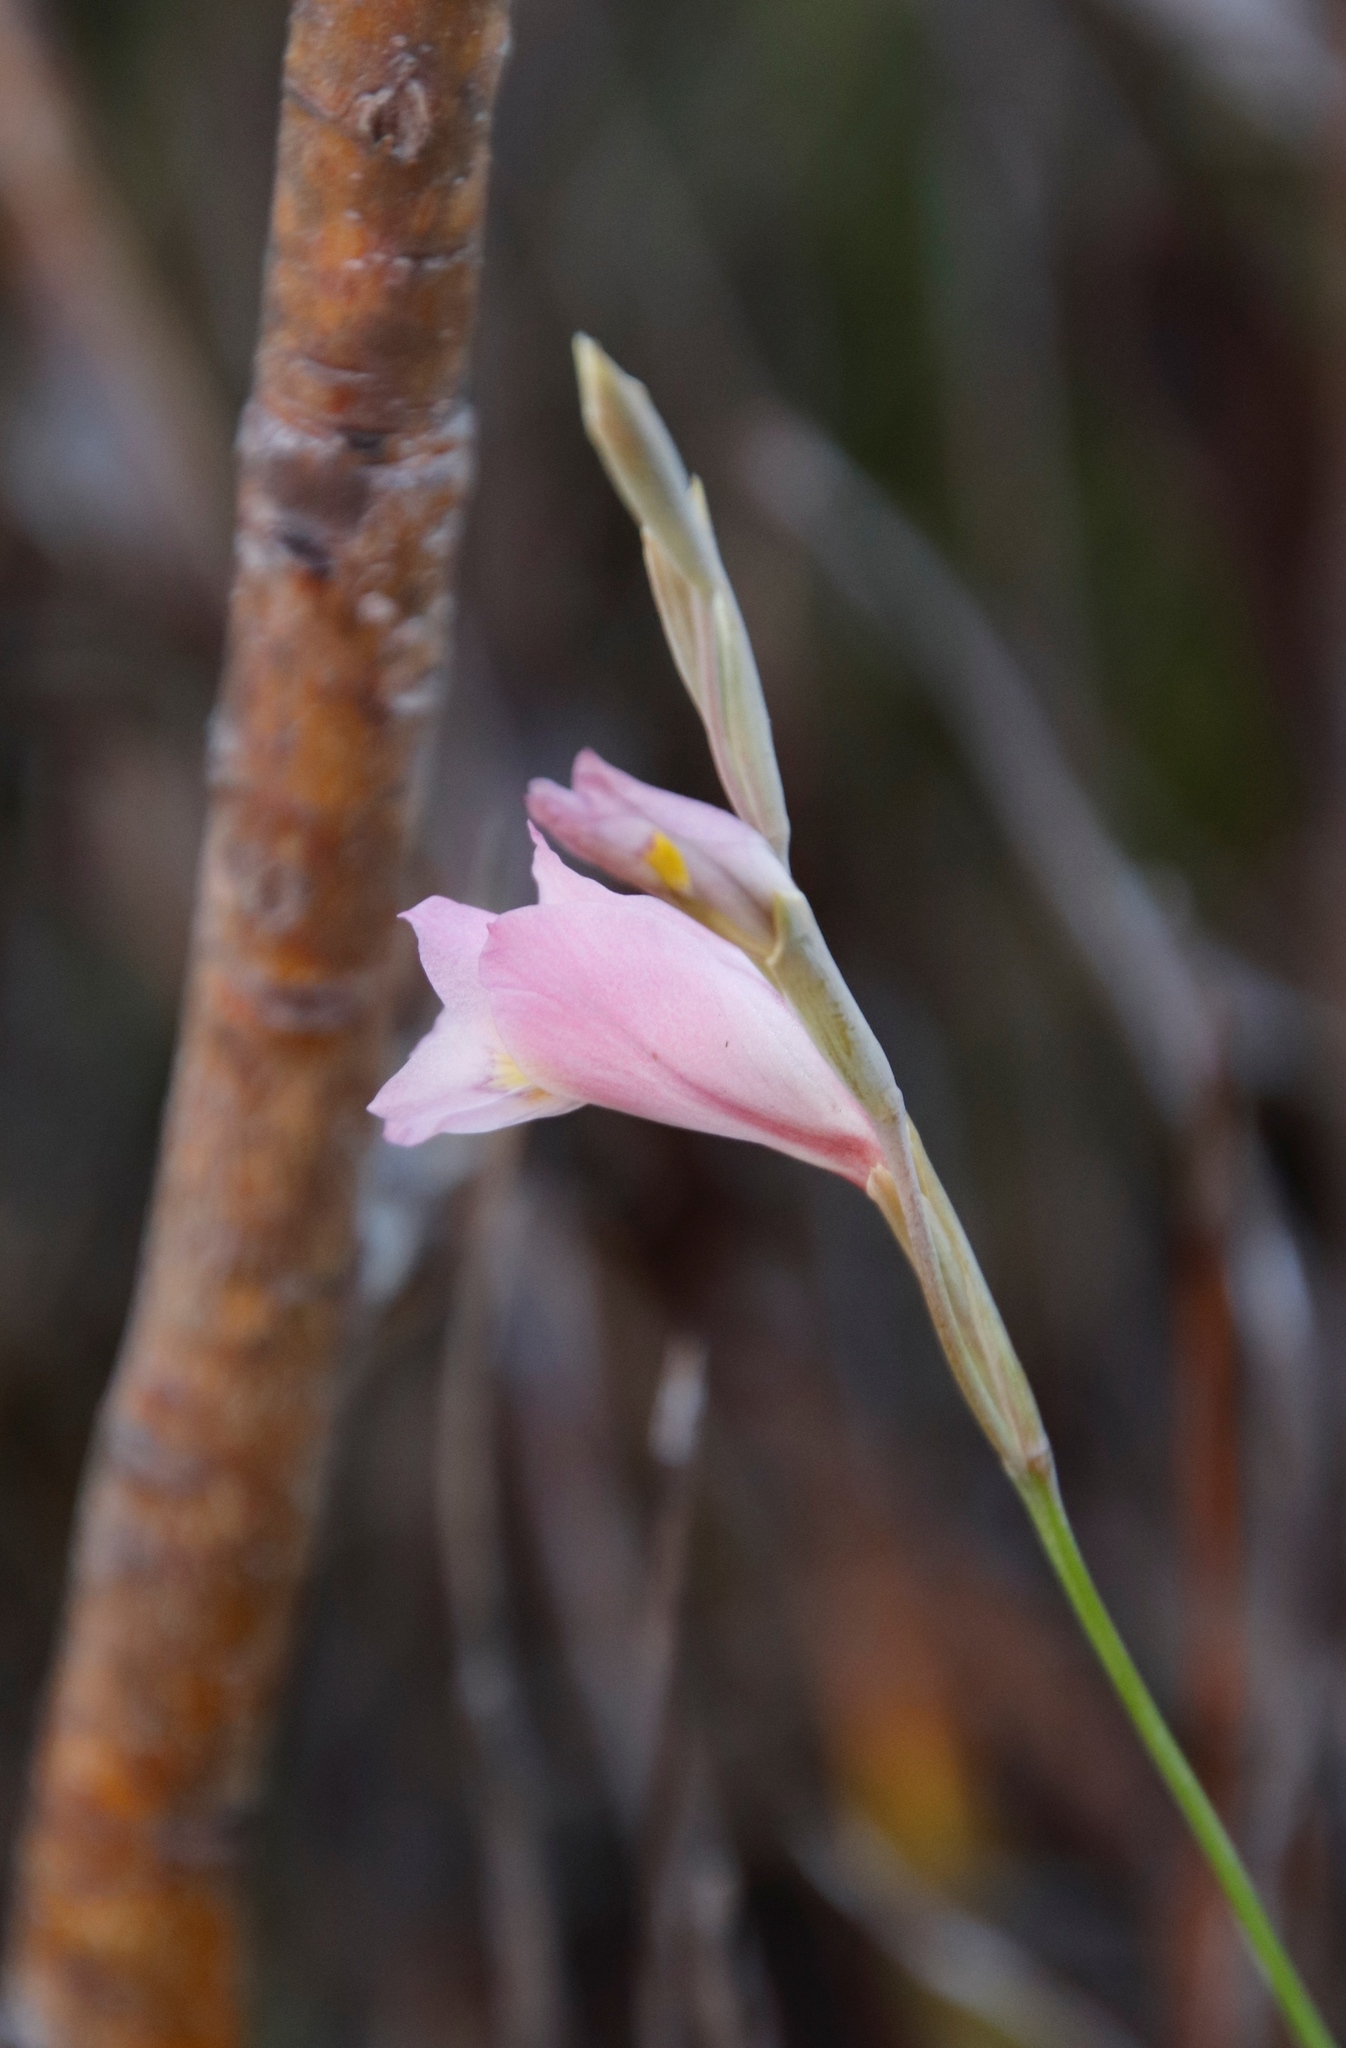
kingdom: Plantae
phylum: Tracheophyta
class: Liliopsida
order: Asparagales
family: Iridaceae
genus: Gladiolus
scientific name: Gladiolus brevifolius
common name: March pypie
